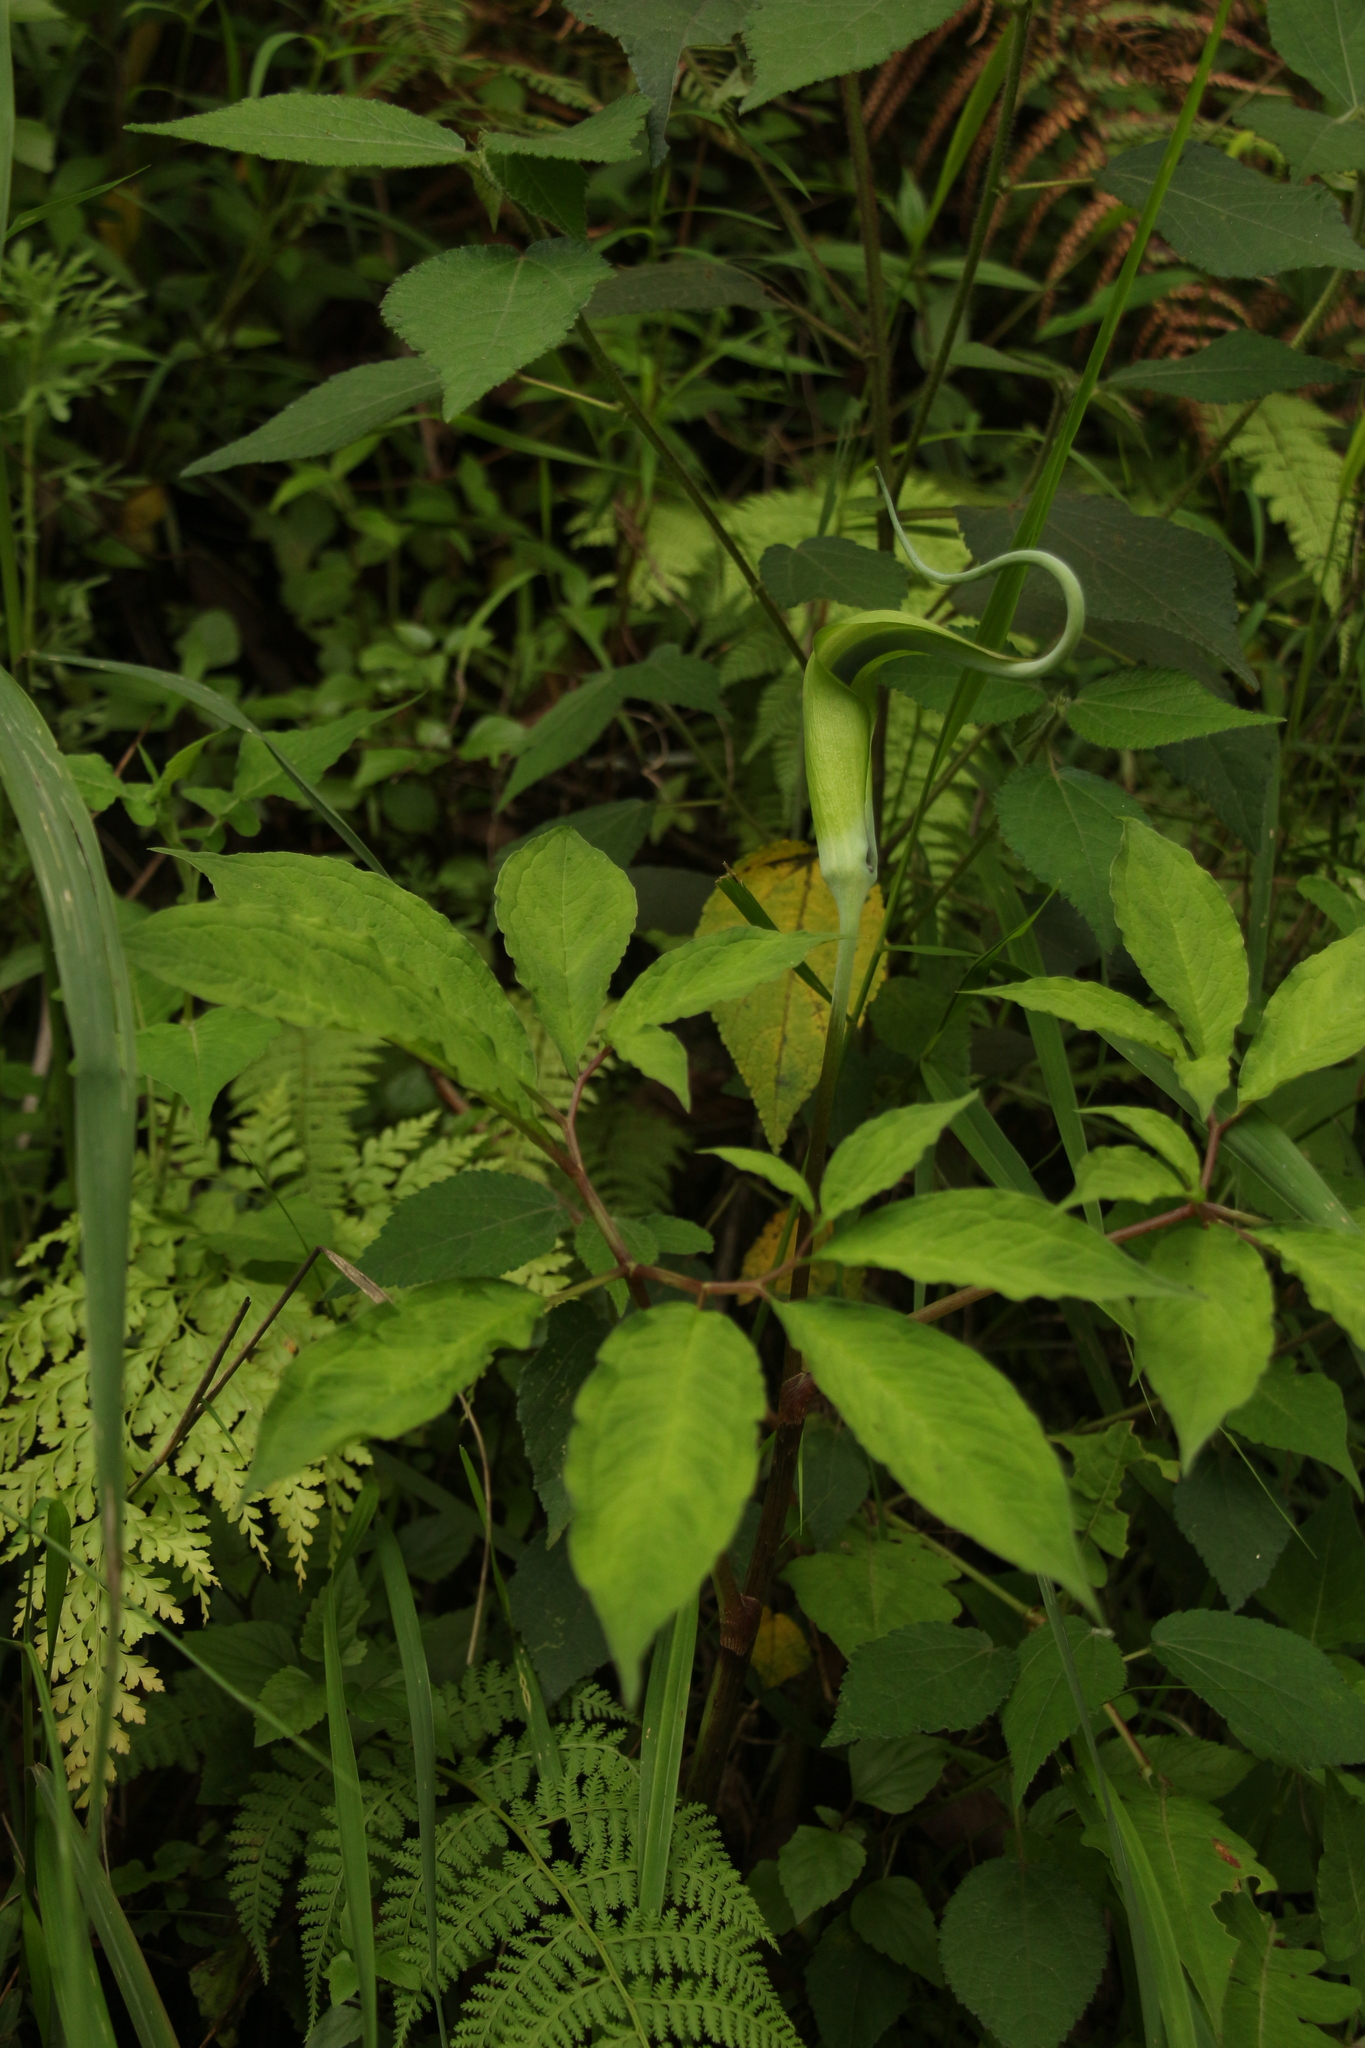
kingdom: Plantae
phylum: Tracheophyta
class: Liliopsida
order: Alismatales
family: Araceae
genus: Arisaema
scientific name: Arisaema tortuosum
